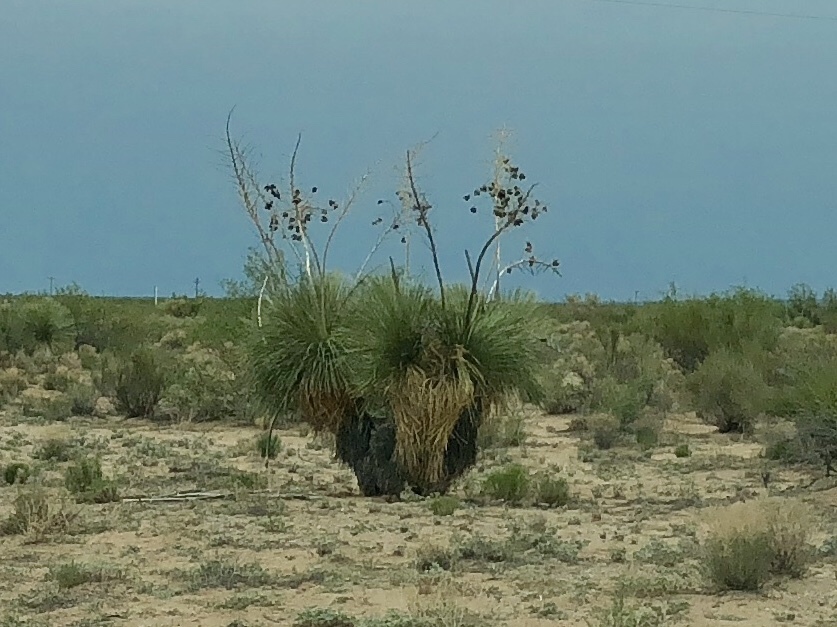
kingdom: Plantae
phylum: Tracheophyta
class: Liliopsida
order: Asparagales
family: Asparagaceae
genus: Yucca
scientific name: Yucca elata
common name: Palmella
